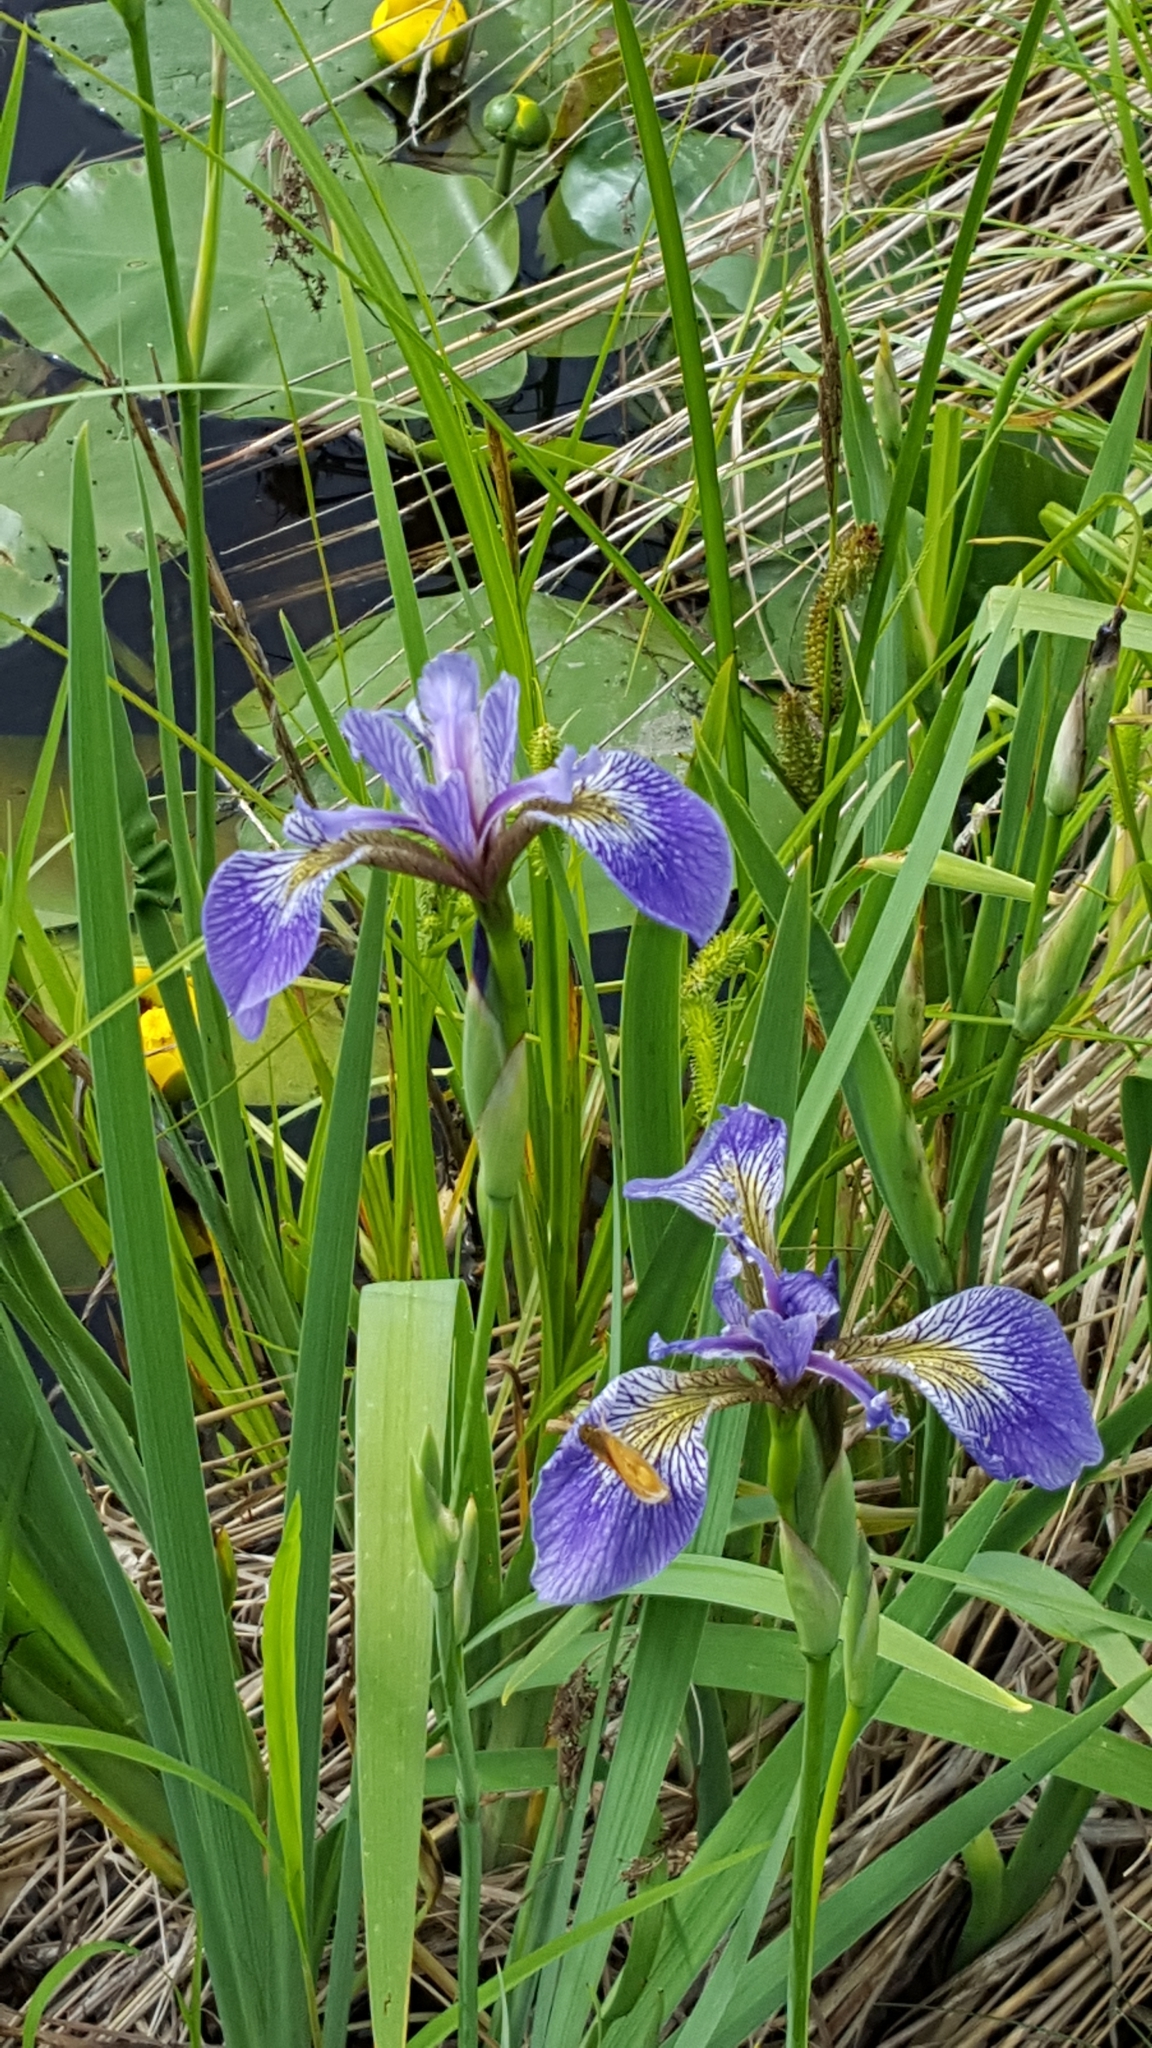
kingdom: Plantae
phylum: Tracheophyta
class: Liliopsida
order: Asparagales
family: Iridaceae
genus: Iris
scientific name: Iris versicolor
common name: Purple iris
